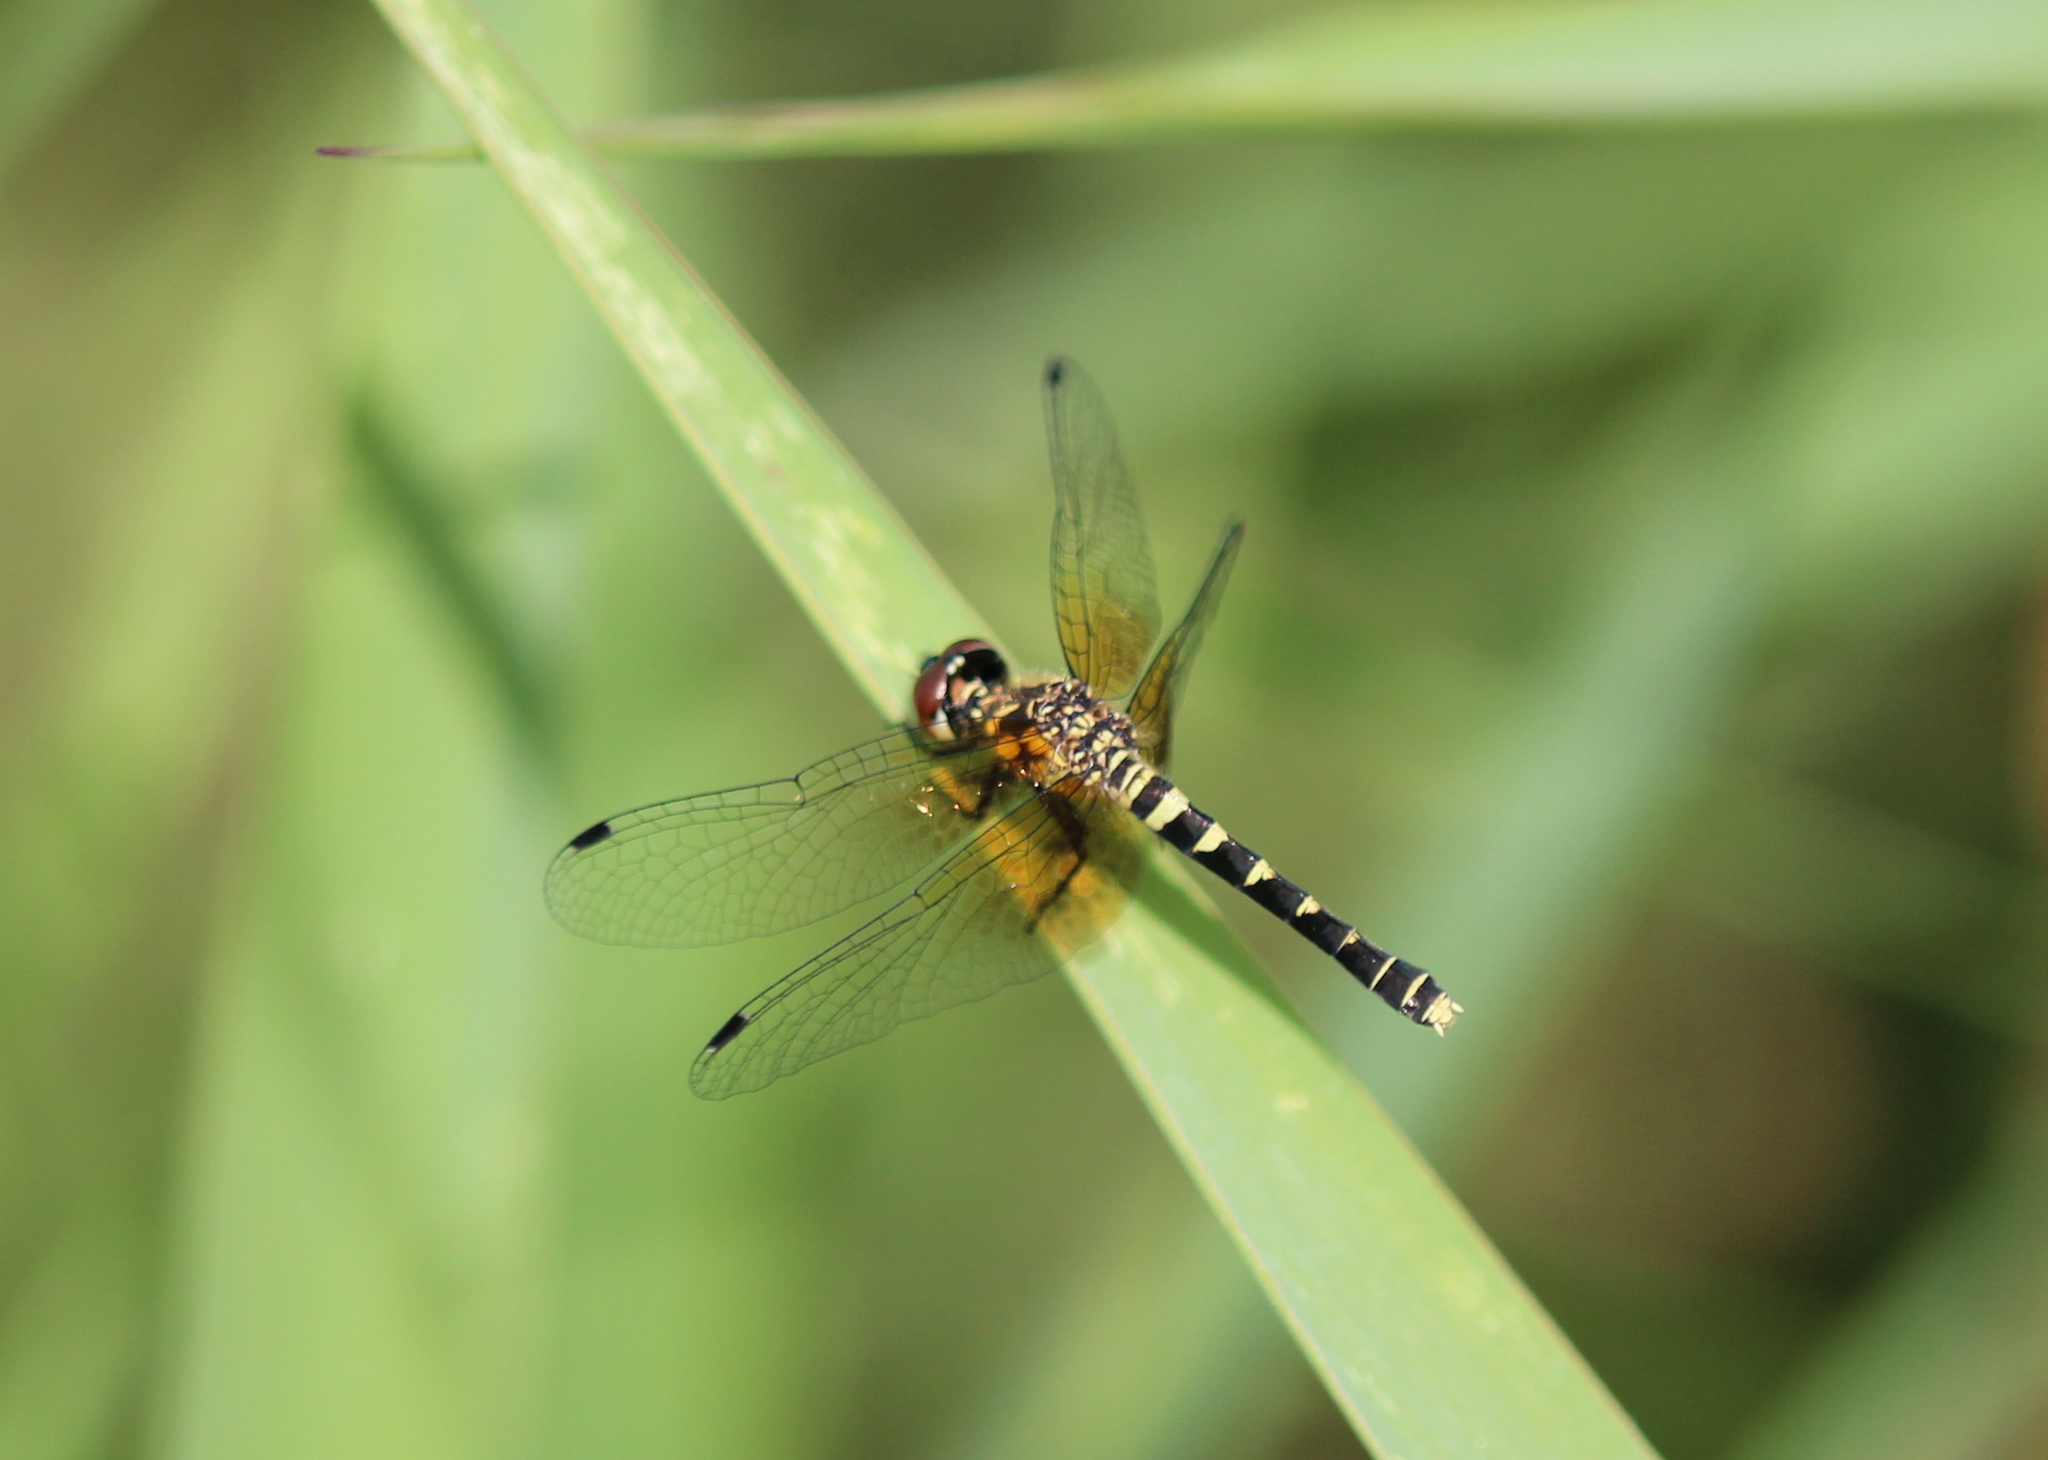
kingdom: Animalia
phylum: Arthropoda
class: Insecta
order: Odonata
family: Libellulidae
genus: Nannothemis
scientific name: Nannothemis bella
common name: Elfin skimmer
